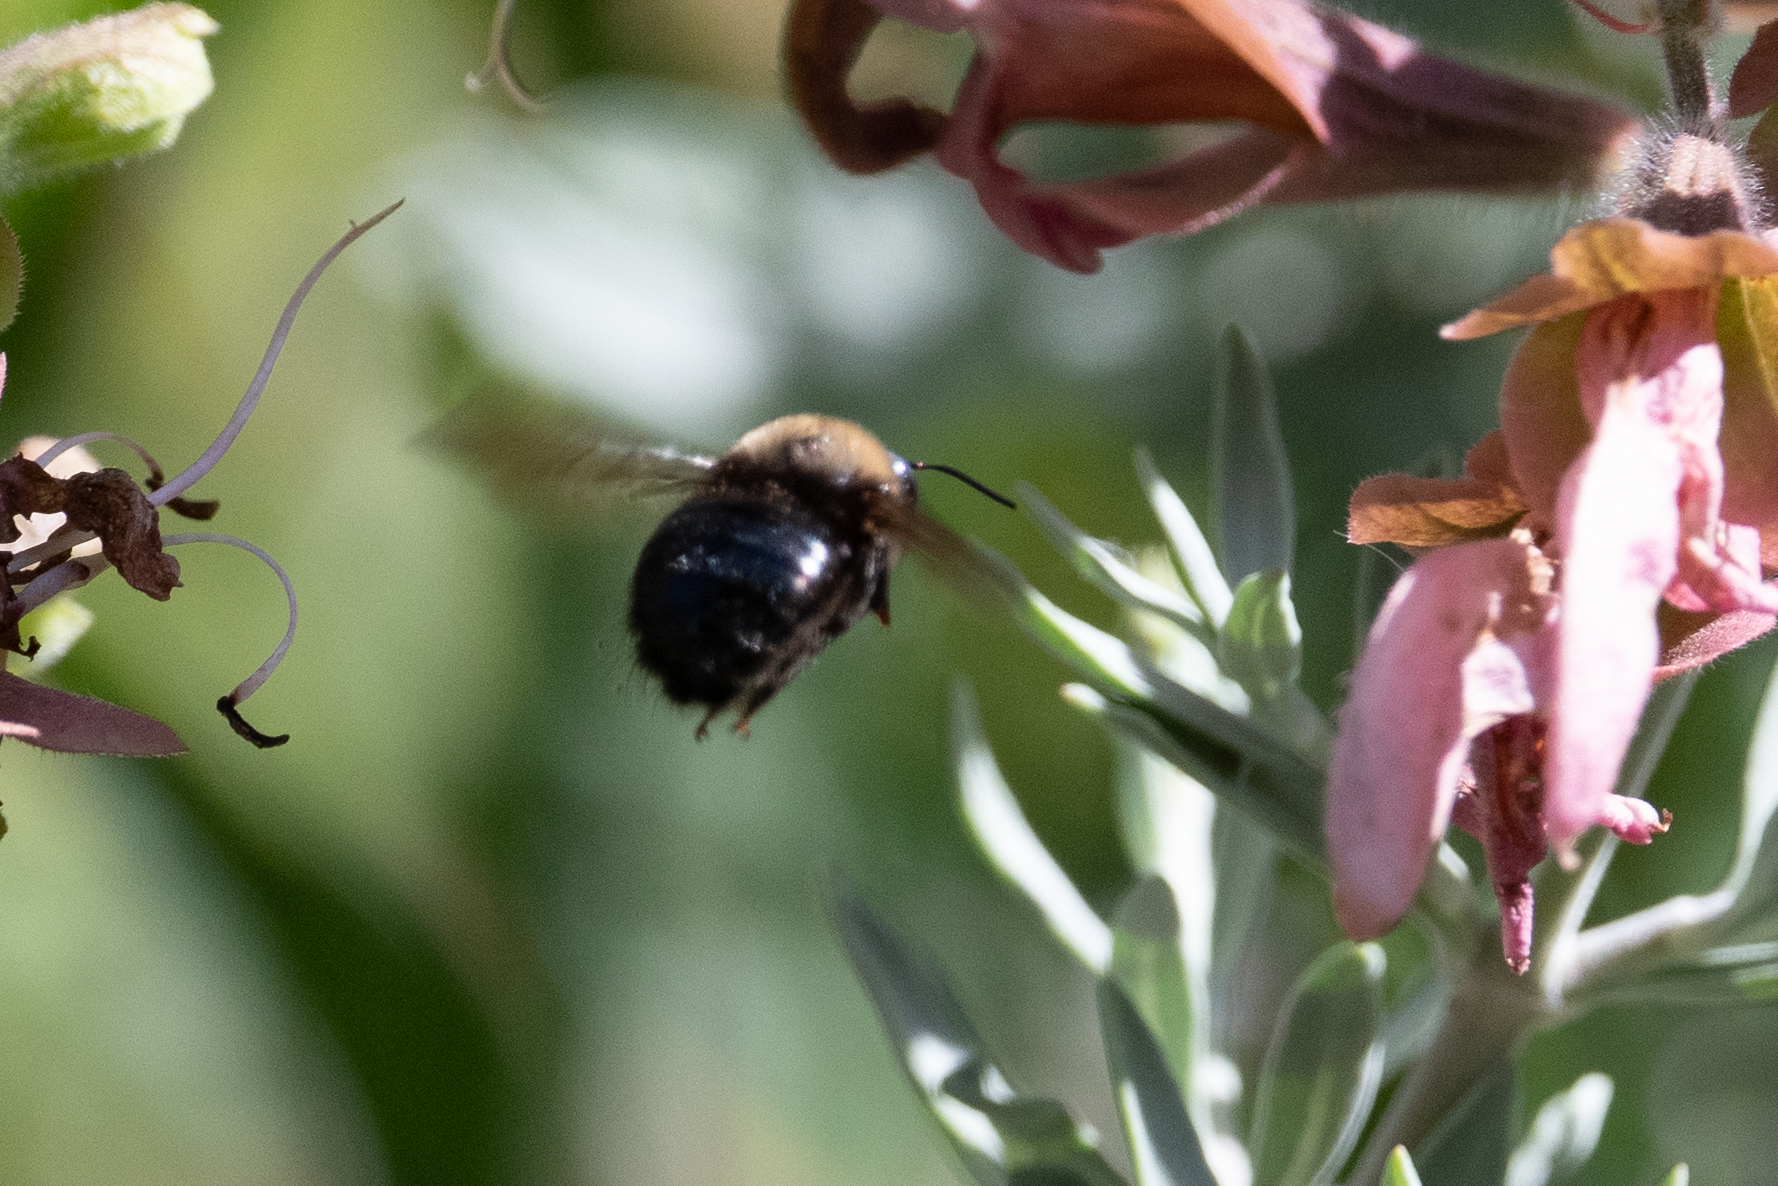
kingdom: Animalia
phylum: Arthropoda
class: Insecta
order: Hymenoptera
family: Apidae
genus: Xylocopa
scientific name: Xylocopa tabaniformis
